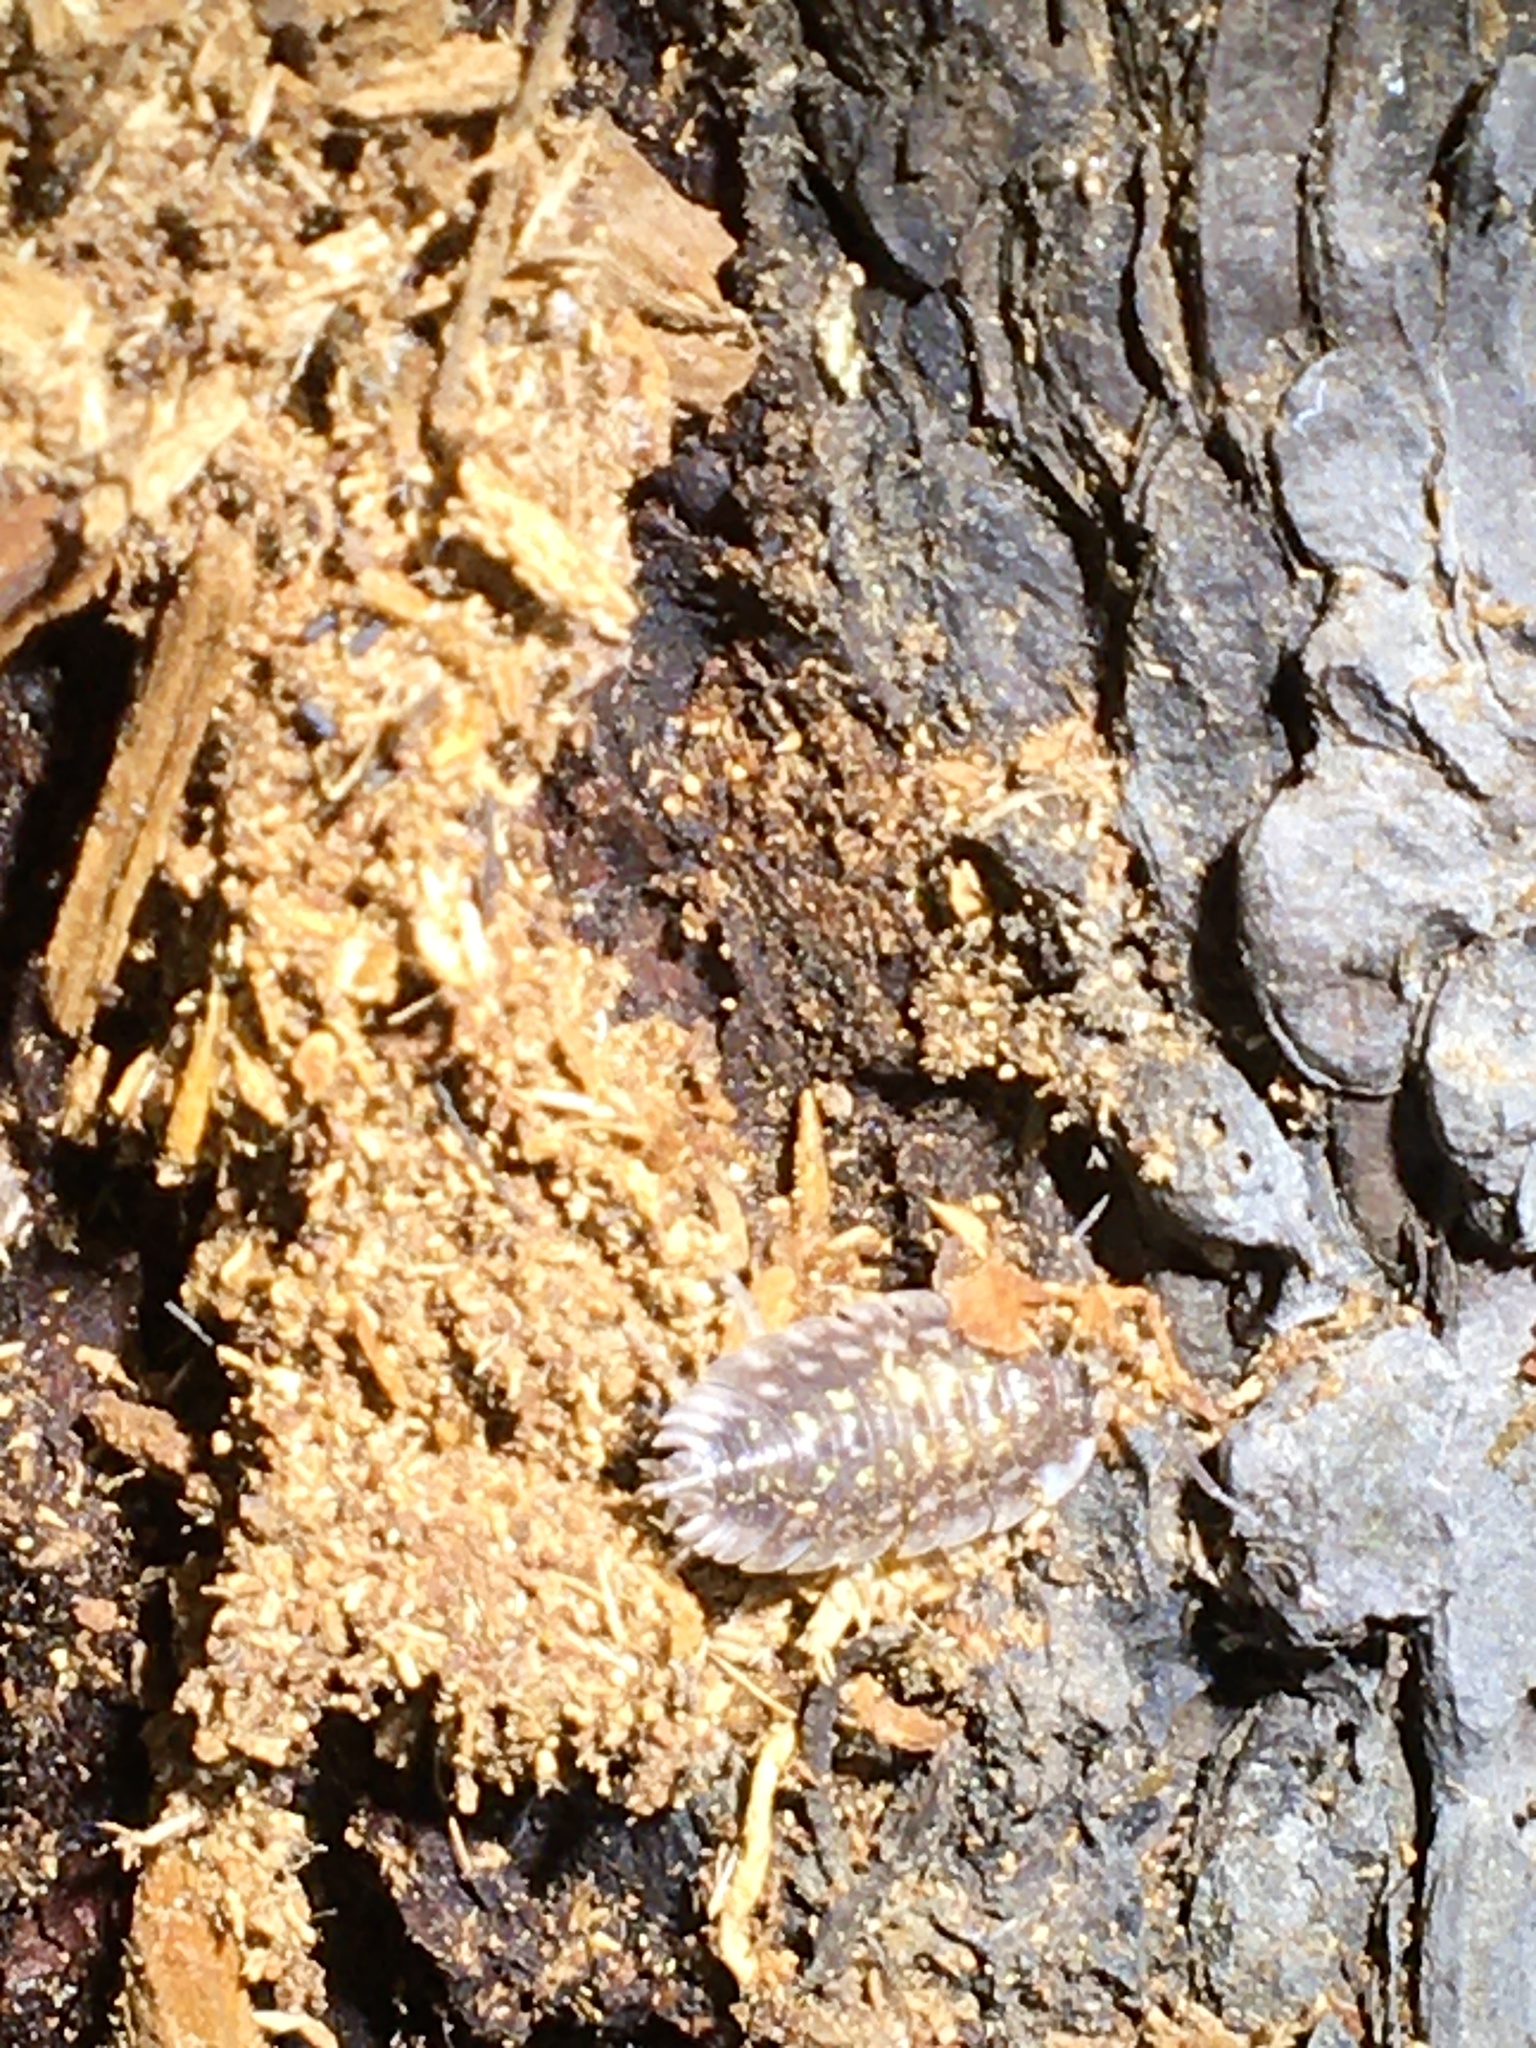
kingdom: Animalia
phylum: Arthropoda
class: Malacostraca
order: Isopoda
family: Oniscidae
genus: Oniscus
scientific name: Oniscus asellus
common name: Common shiny woodlouse
